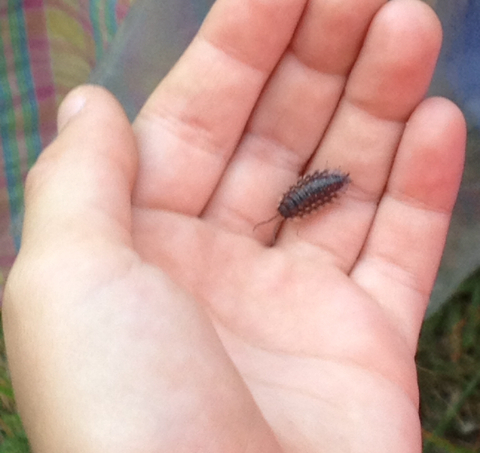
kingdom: Animalia
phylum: Arthropoda
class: Malacostraca
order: Isopoda
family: Oniscidae
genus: Oniscus
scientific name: Oniscus asellus
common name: Common shiny woodlouse
